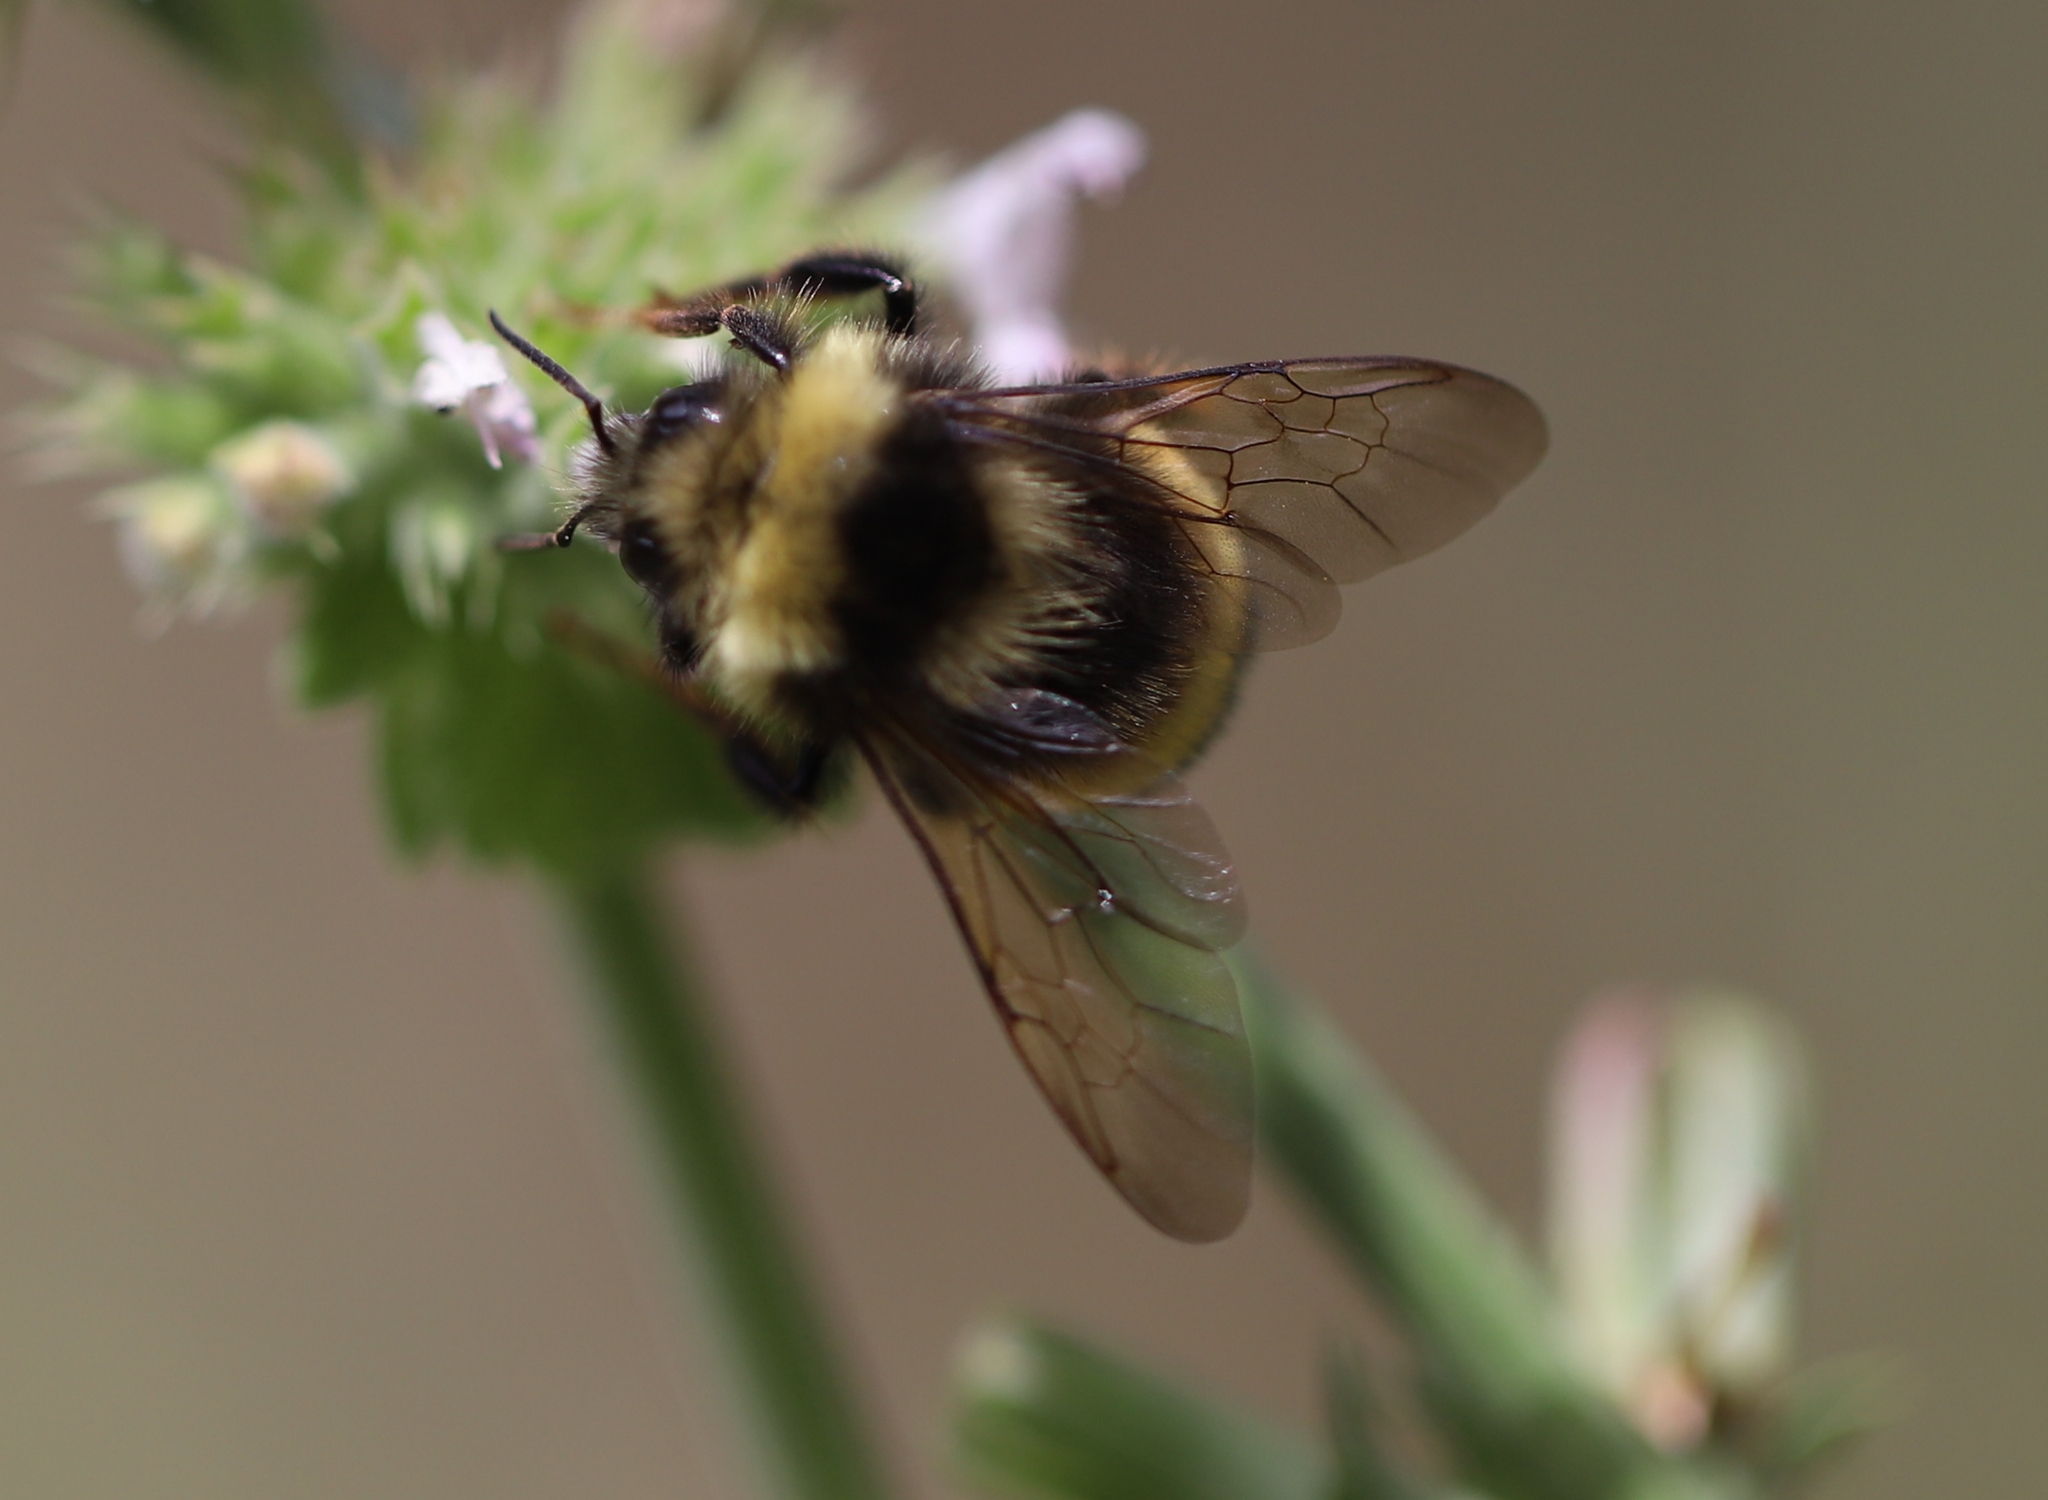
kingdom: Animalia
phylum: Arthropoda
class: Insecta
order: Hymenoptera
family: Apidae
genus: Bombus
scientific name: Bombus occidentalis
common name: Western bumble bee
